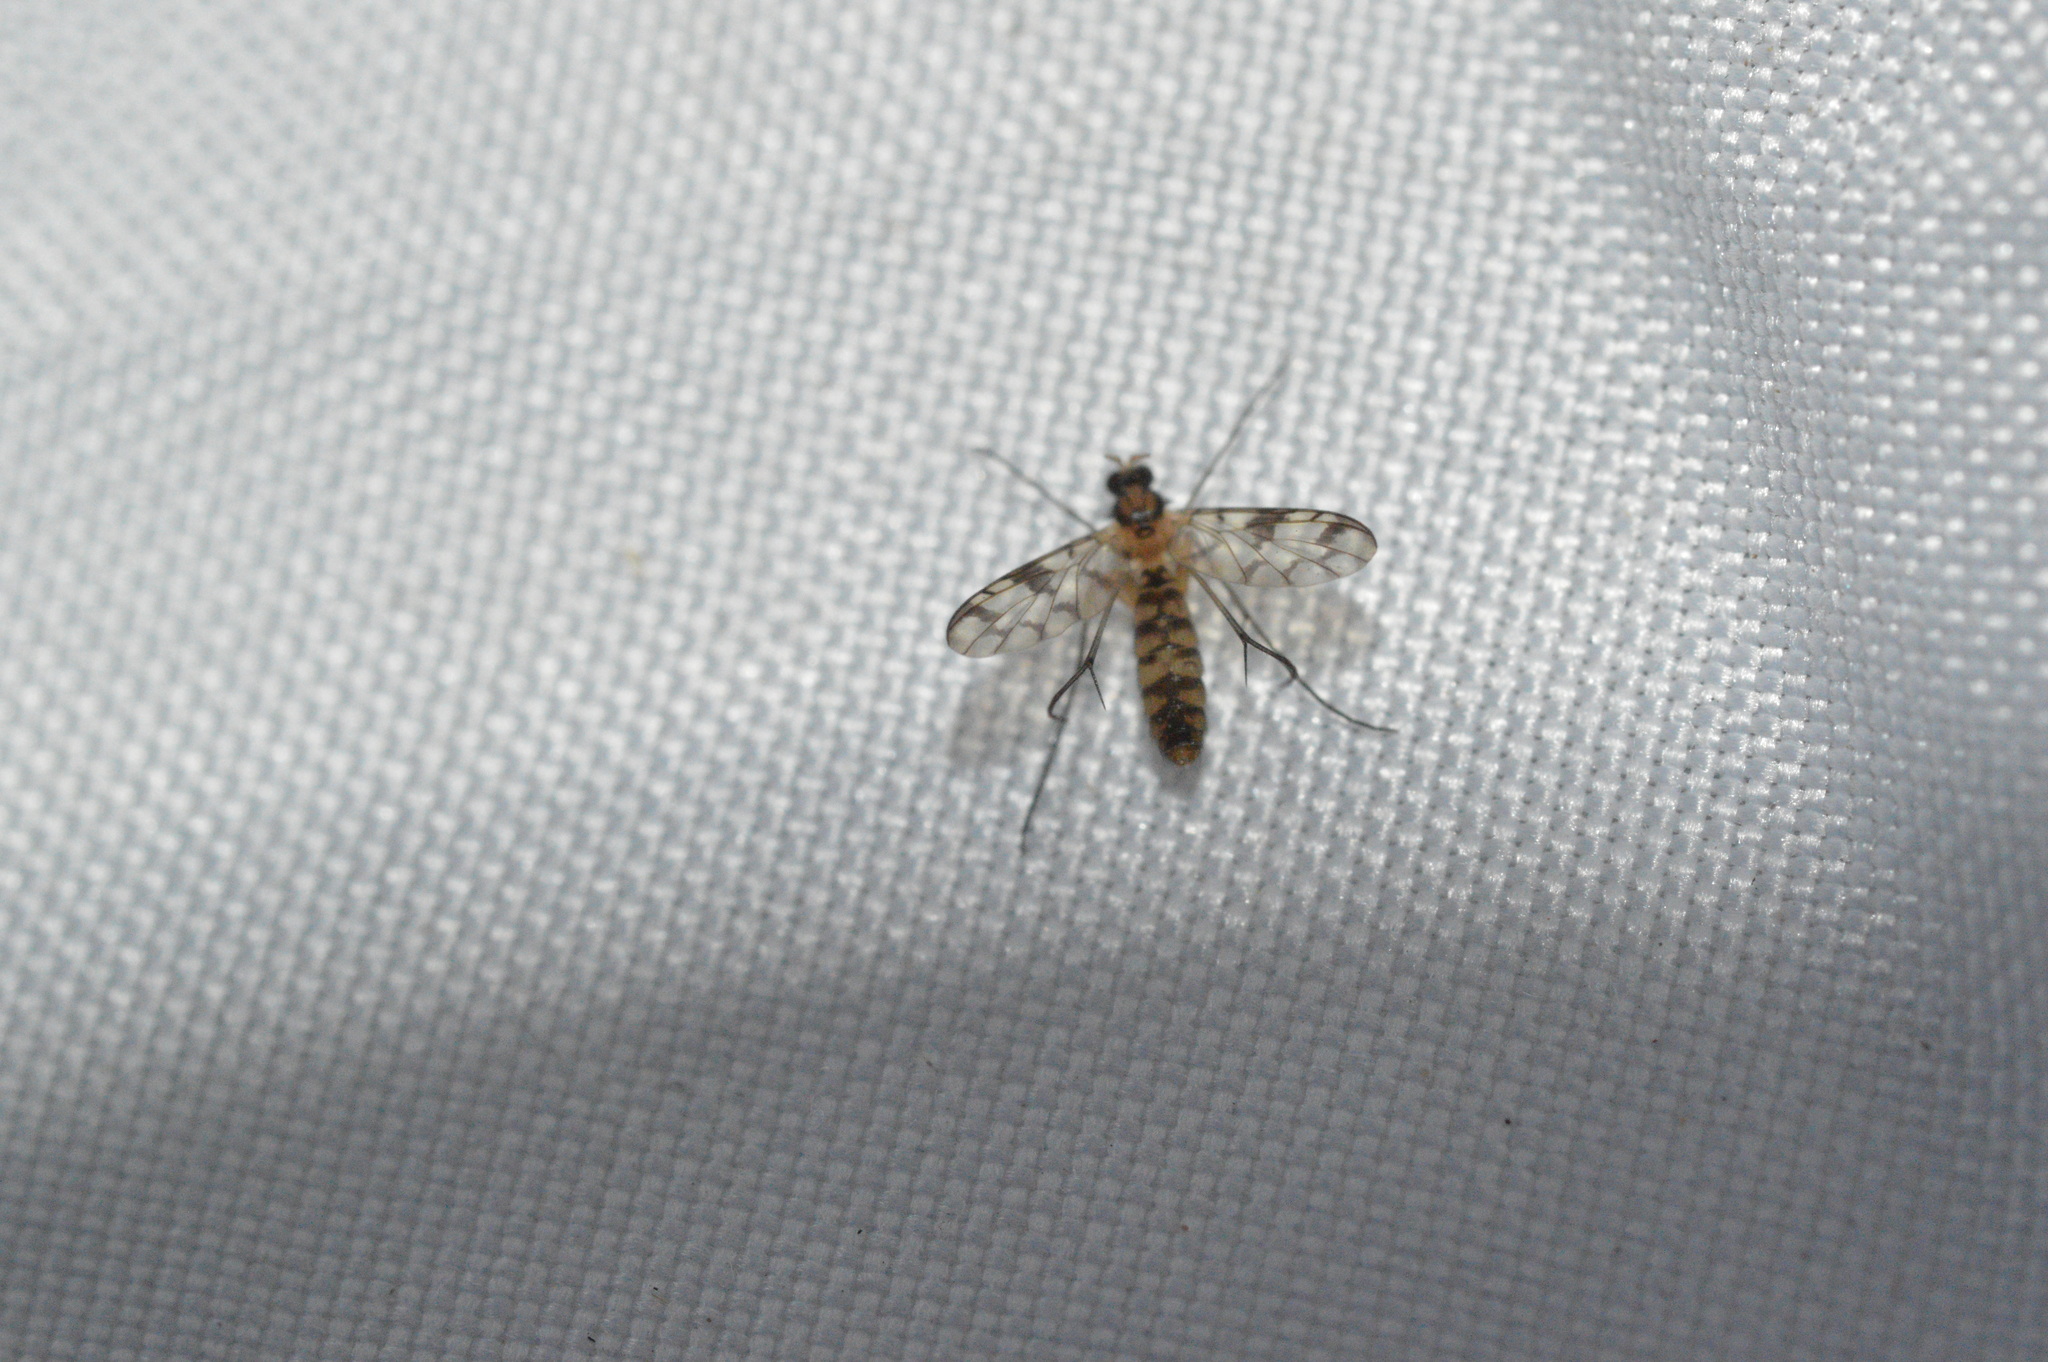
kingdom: Animalia
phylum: Arthropoda
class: Insecta
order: Diptera
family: Keroplatidae
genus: Proceroplatus
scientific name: Proceroplatus
